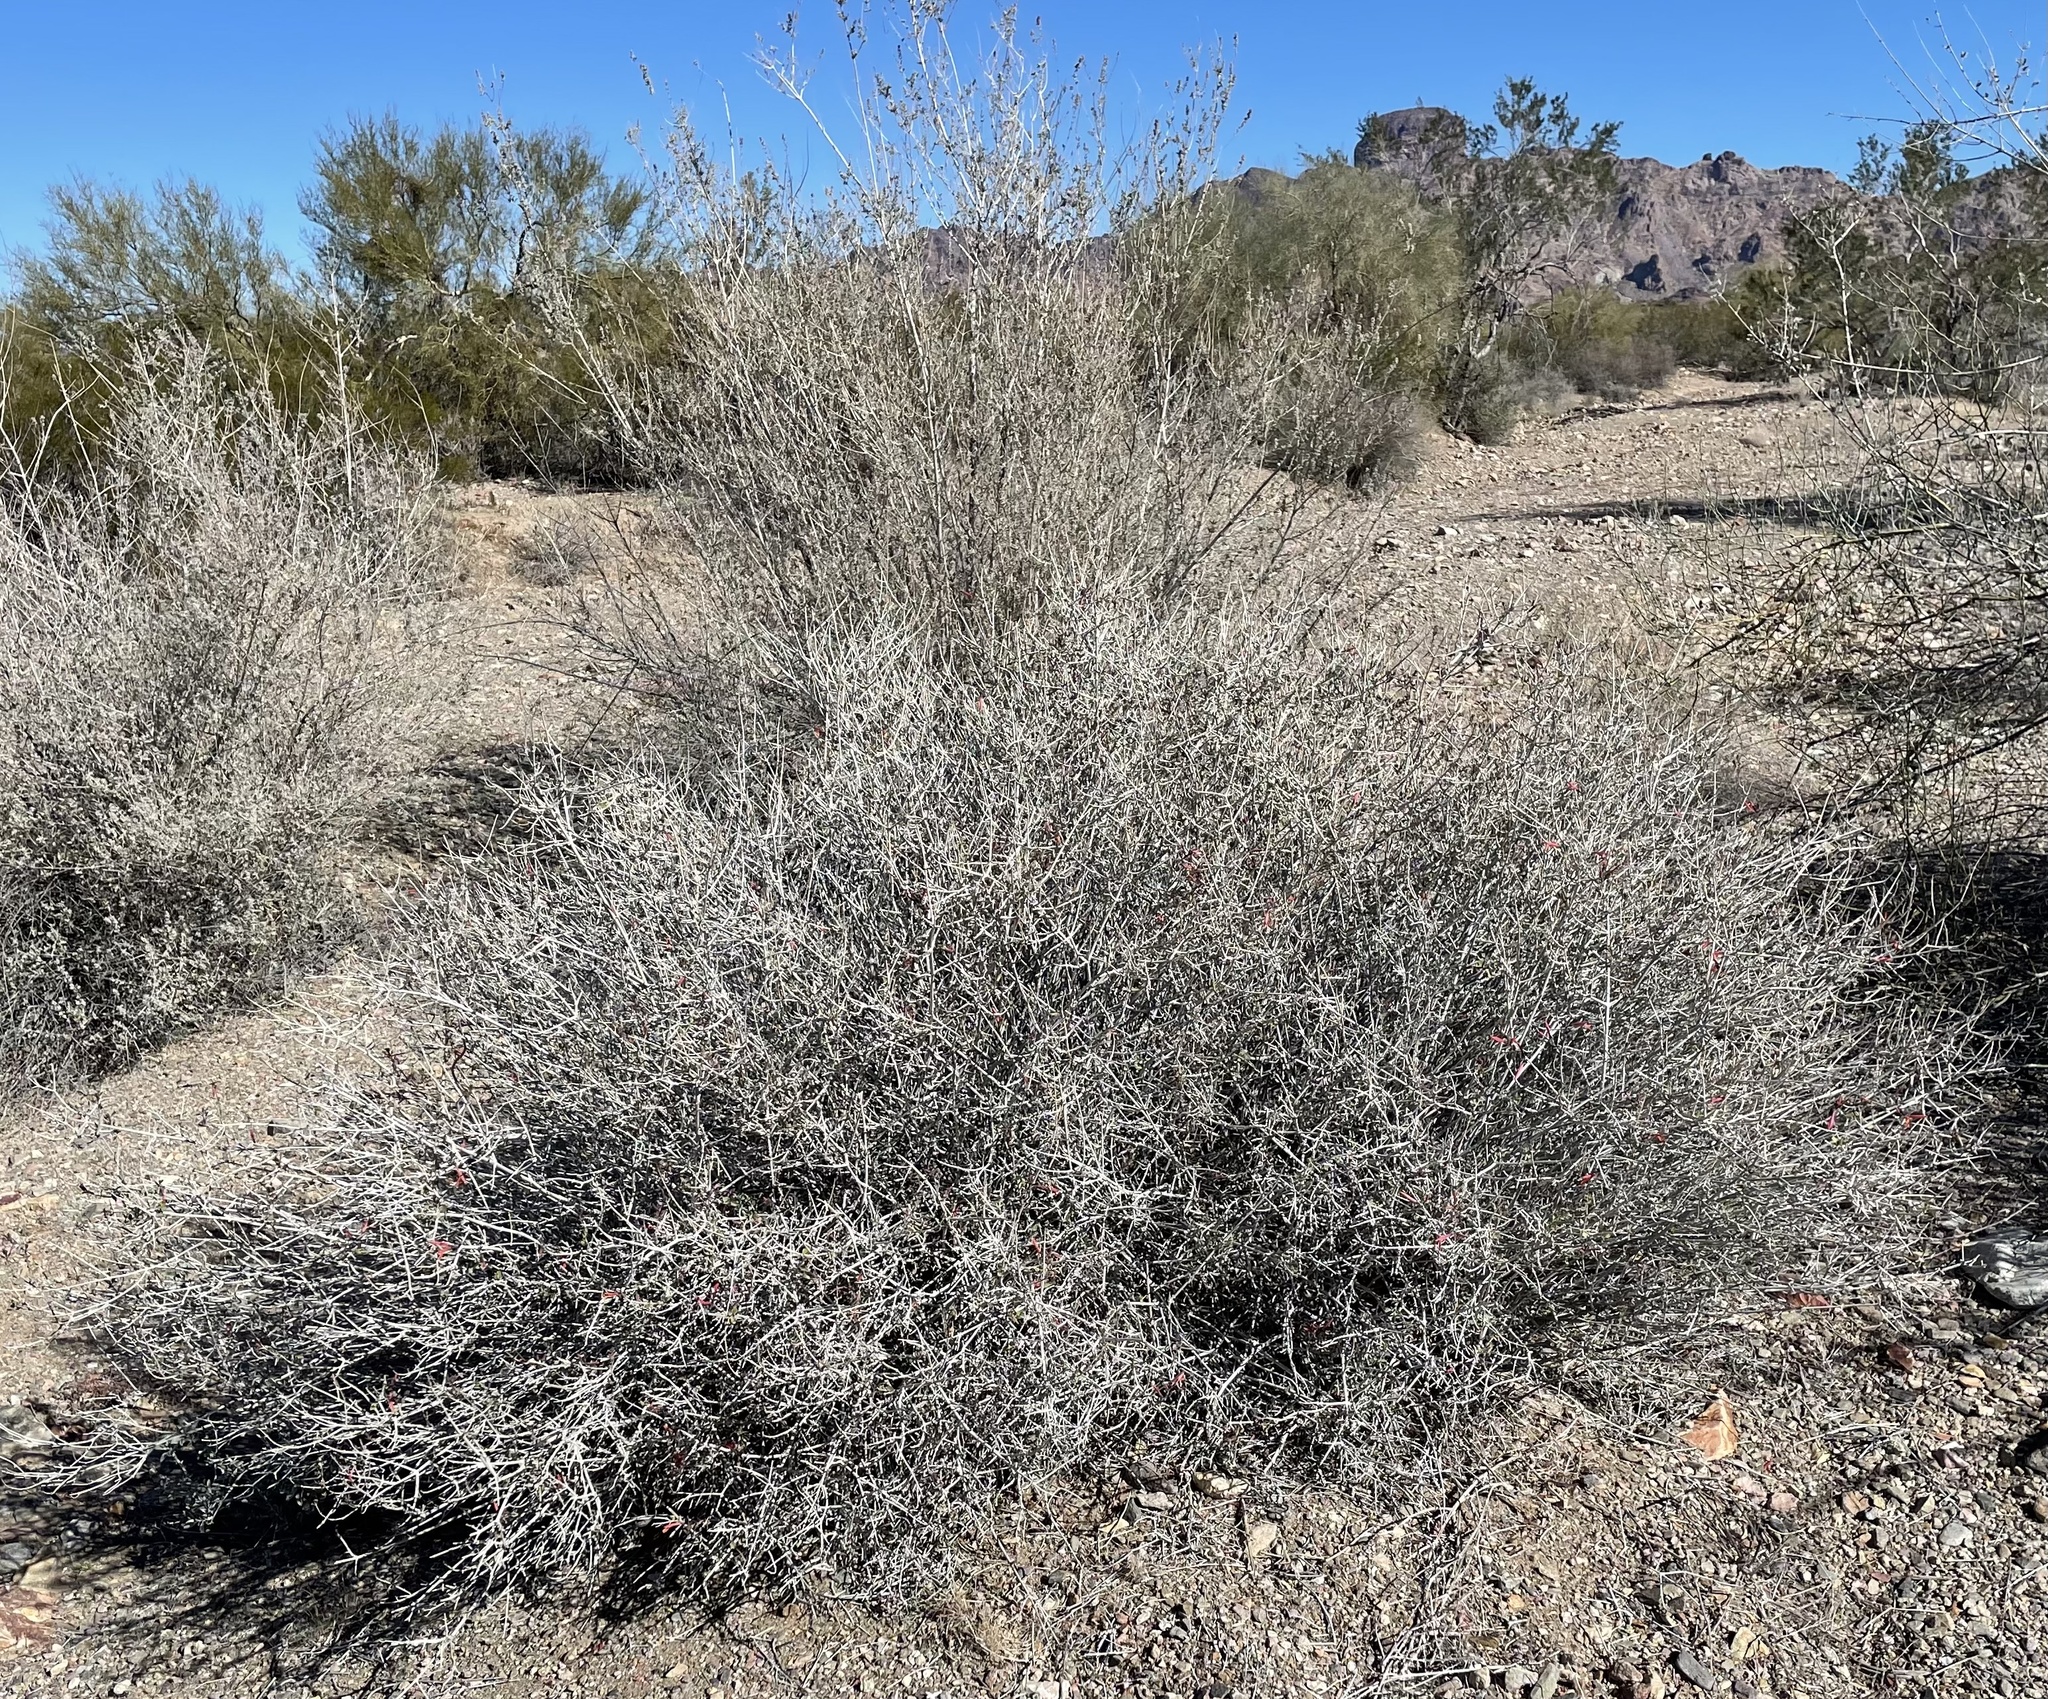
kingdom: Plantae
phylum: Tracheophyta
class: Magnoliopsida
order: Lamiales
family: Acanthaceae
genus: Justicia
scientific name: Justicia californica
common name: Chuparosa-honeysuckle
